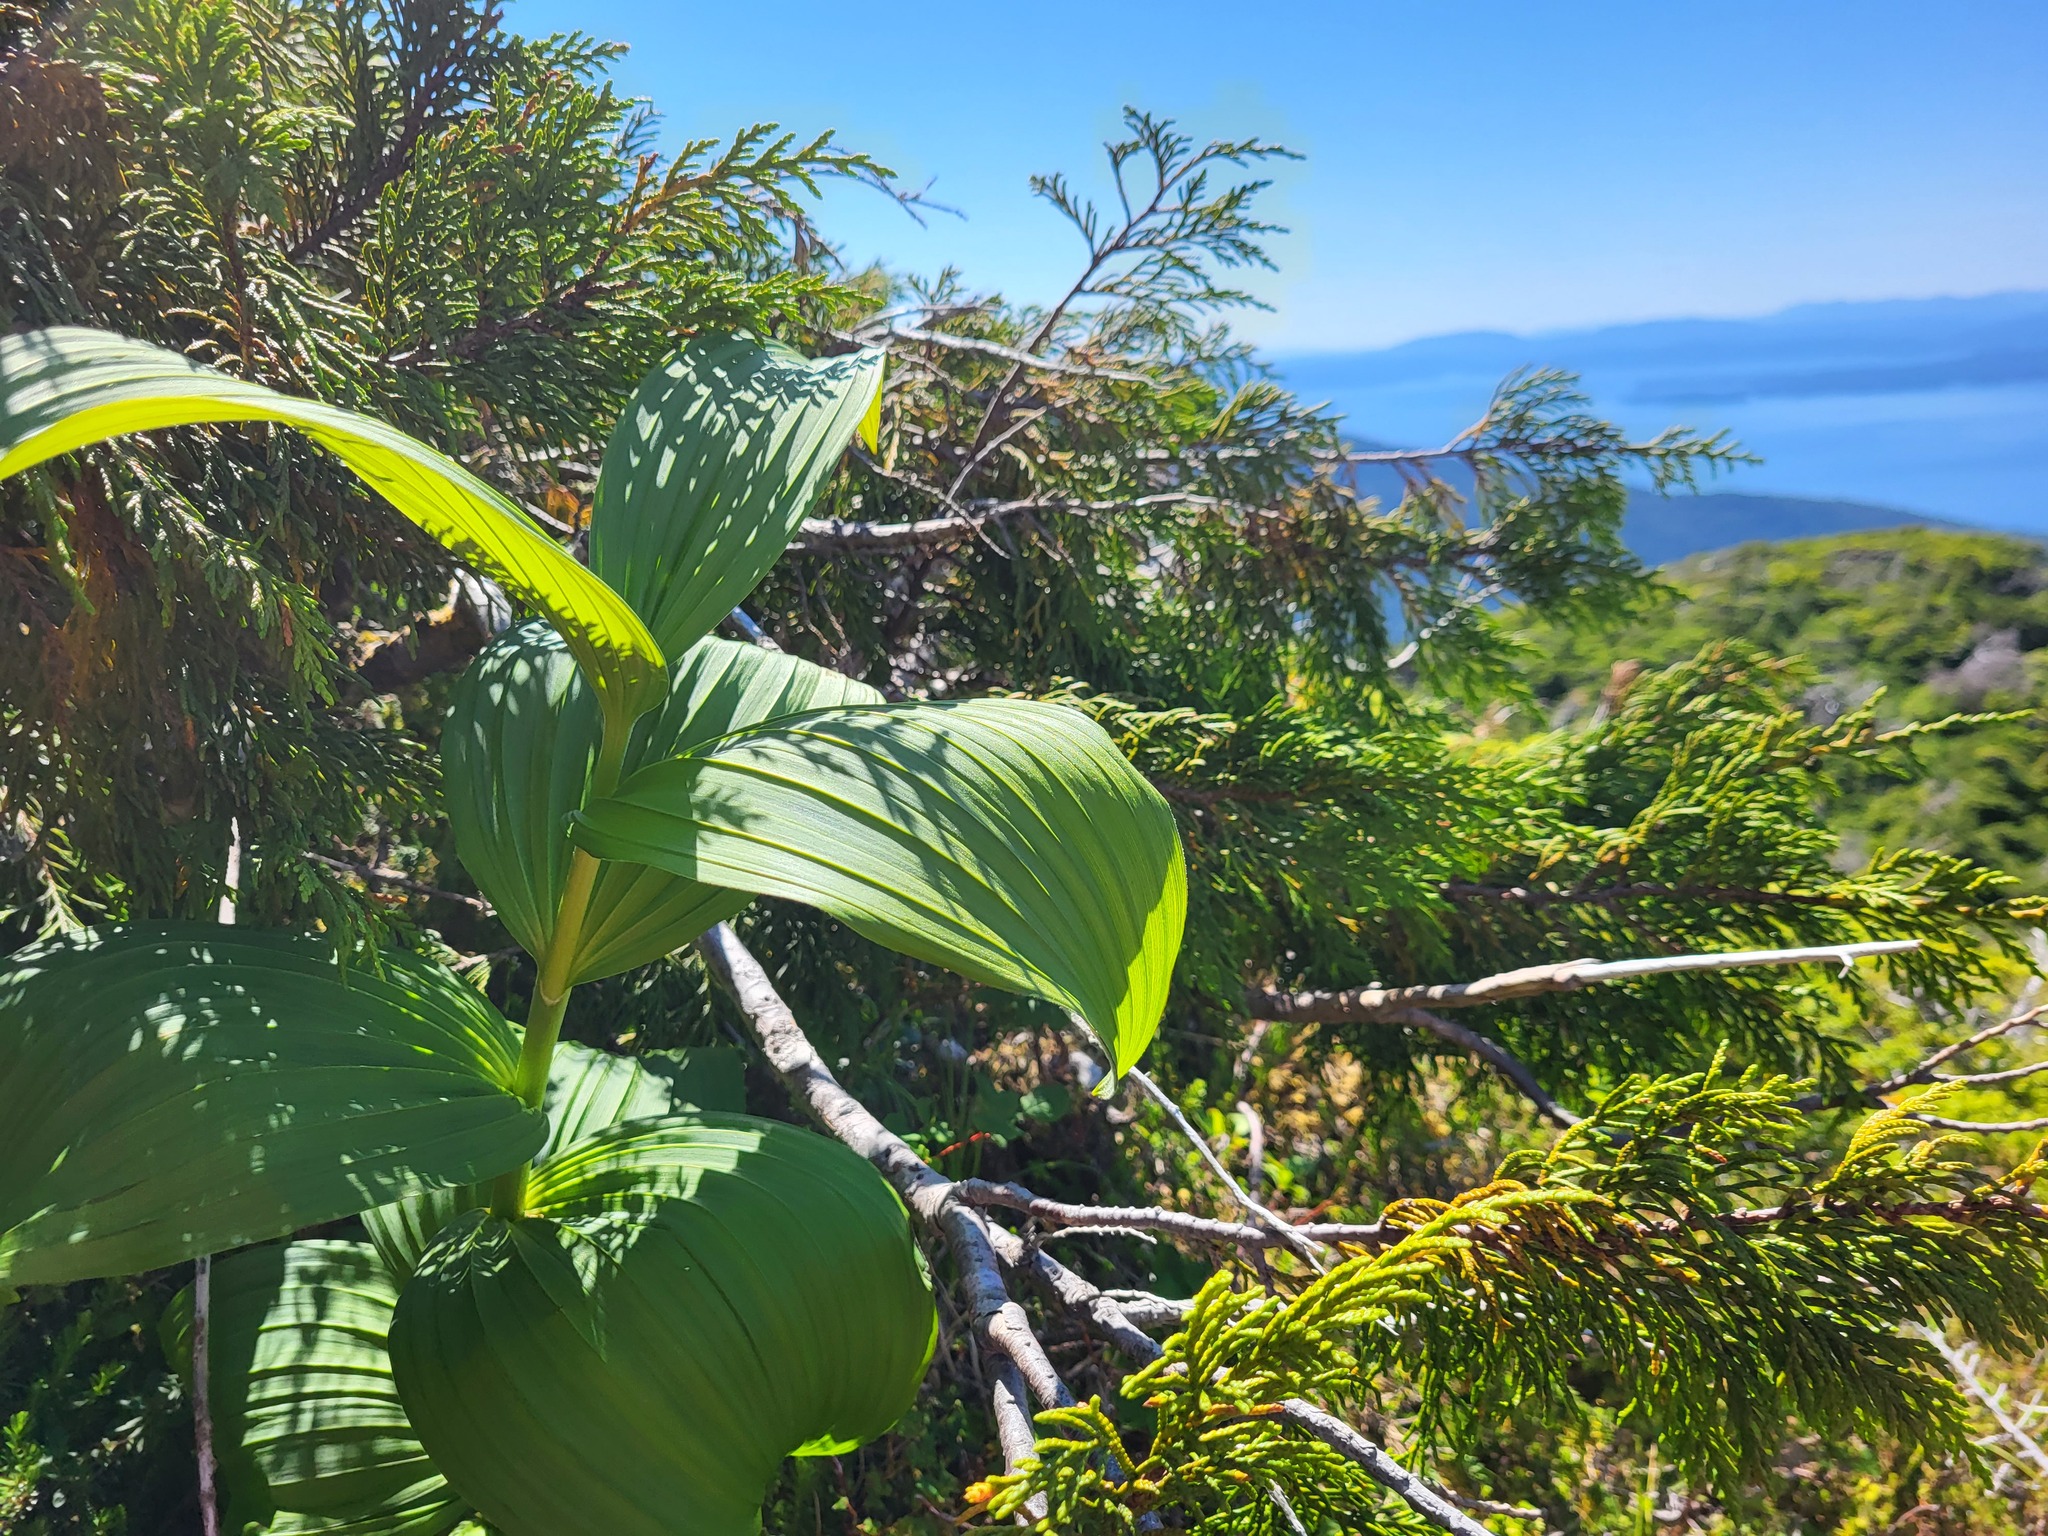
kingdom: Plantae
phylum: Tracheophyta
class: Liliopsida
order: Liliales
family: Melanthiaceae
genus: Veratrum
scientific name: Veratrum viride
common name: American false hellebore
